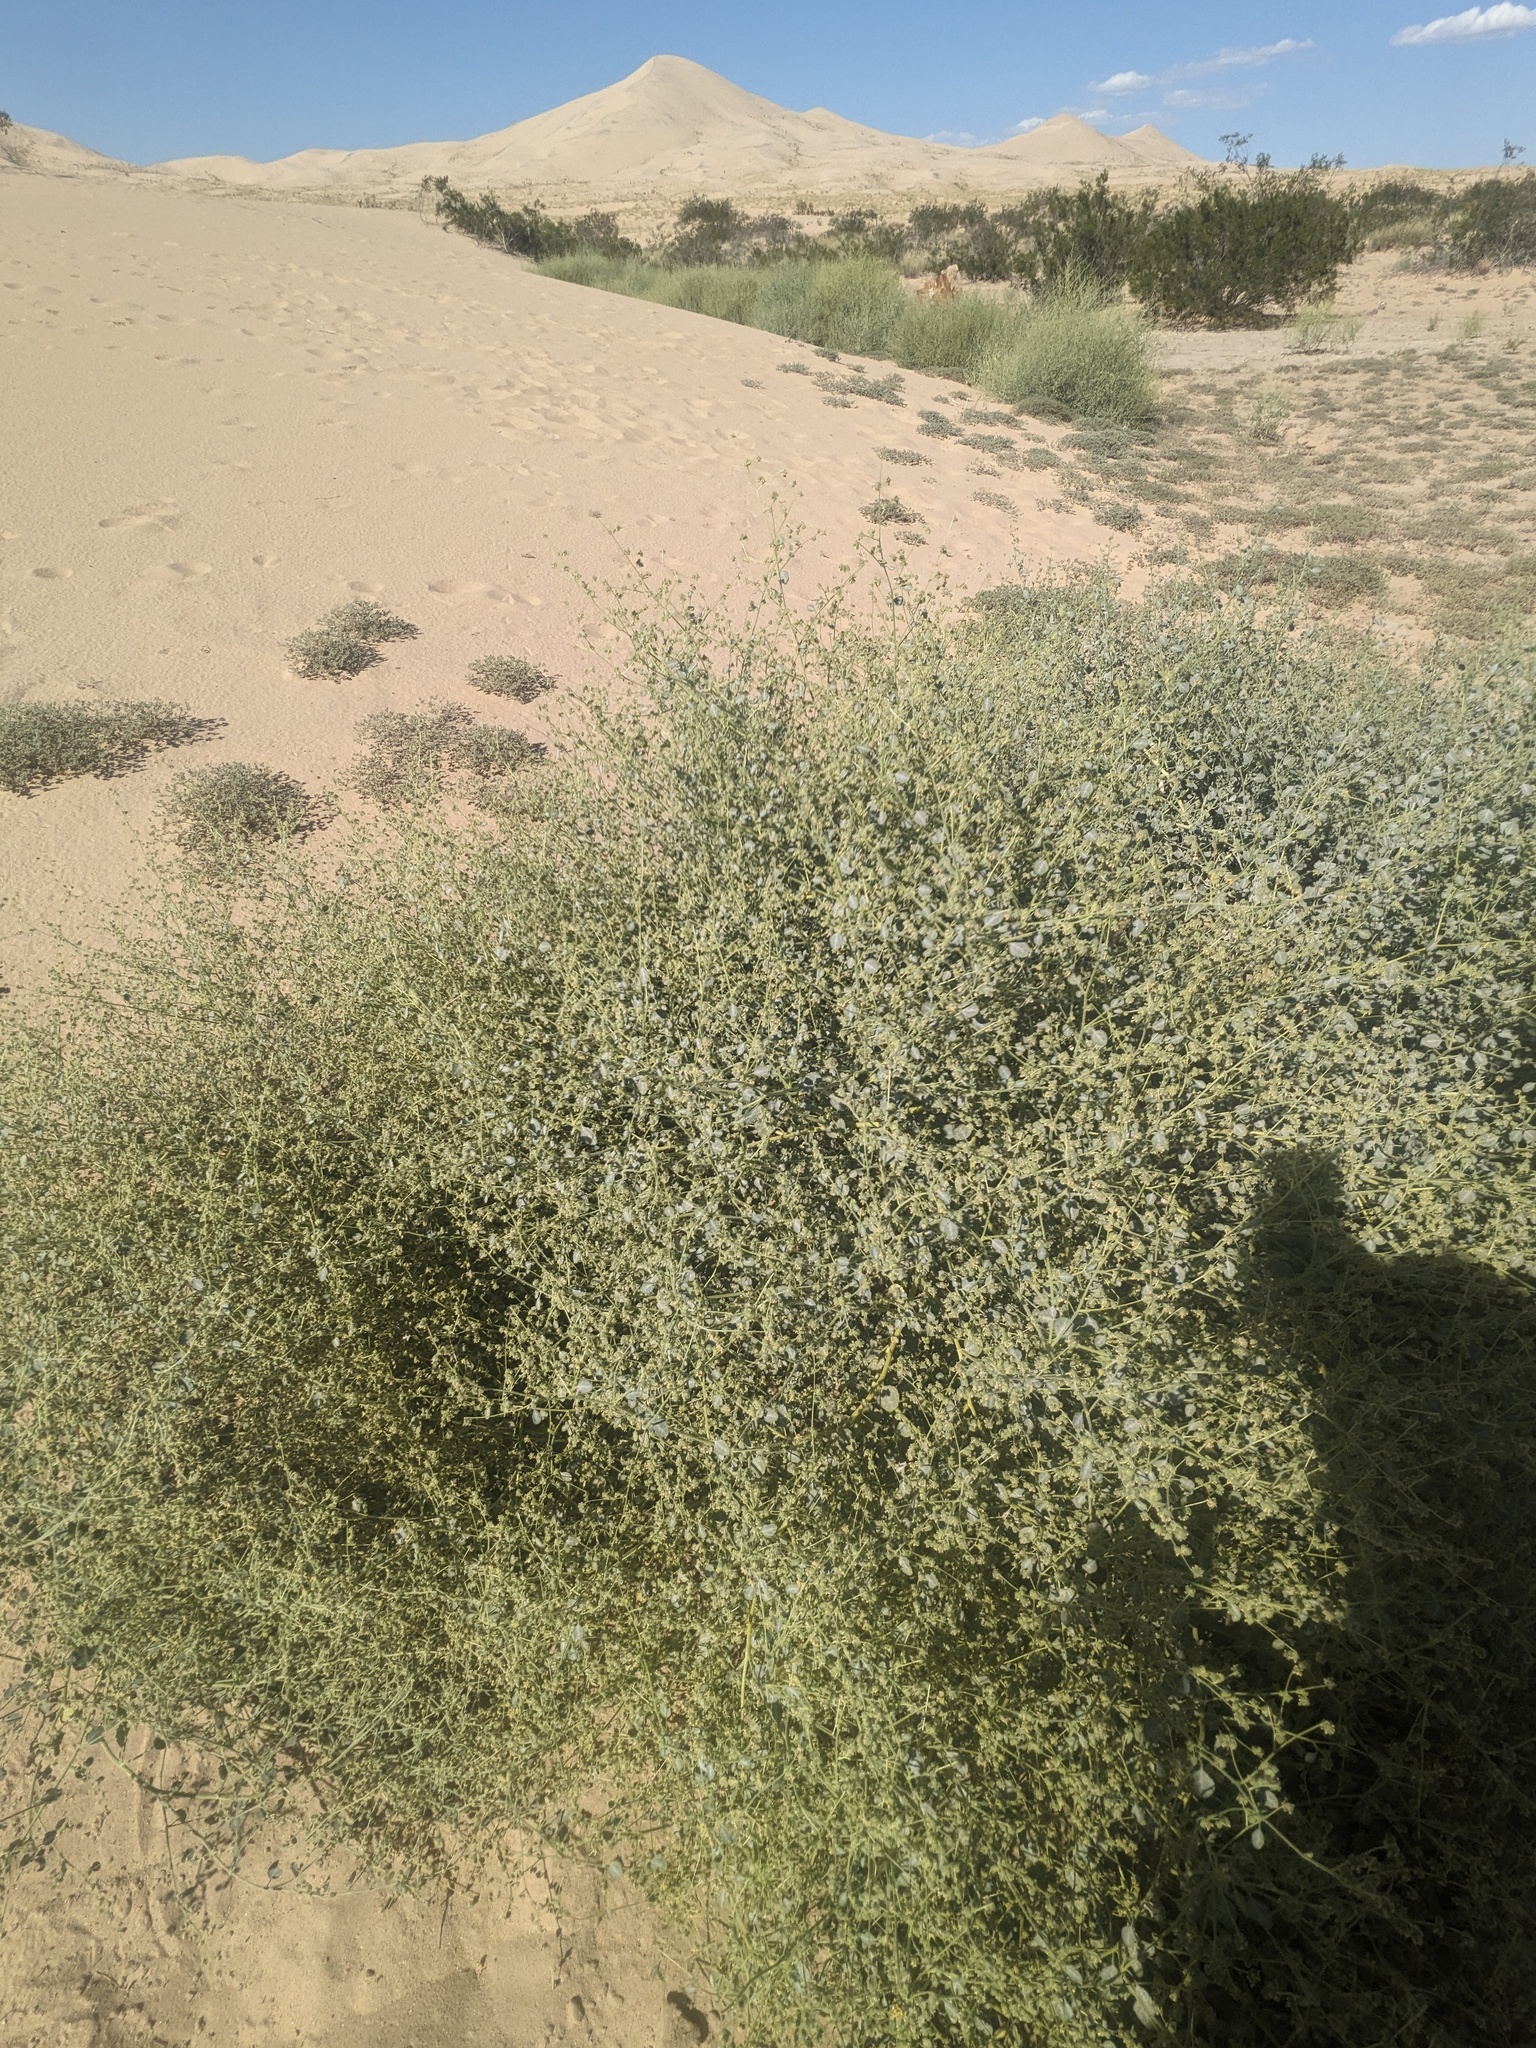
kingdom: Plantae
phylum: Tracheophyta
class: Magnoliopsida
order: Asterales
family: Asteraceae
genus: Dicoria
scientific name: Dicoria canescens
